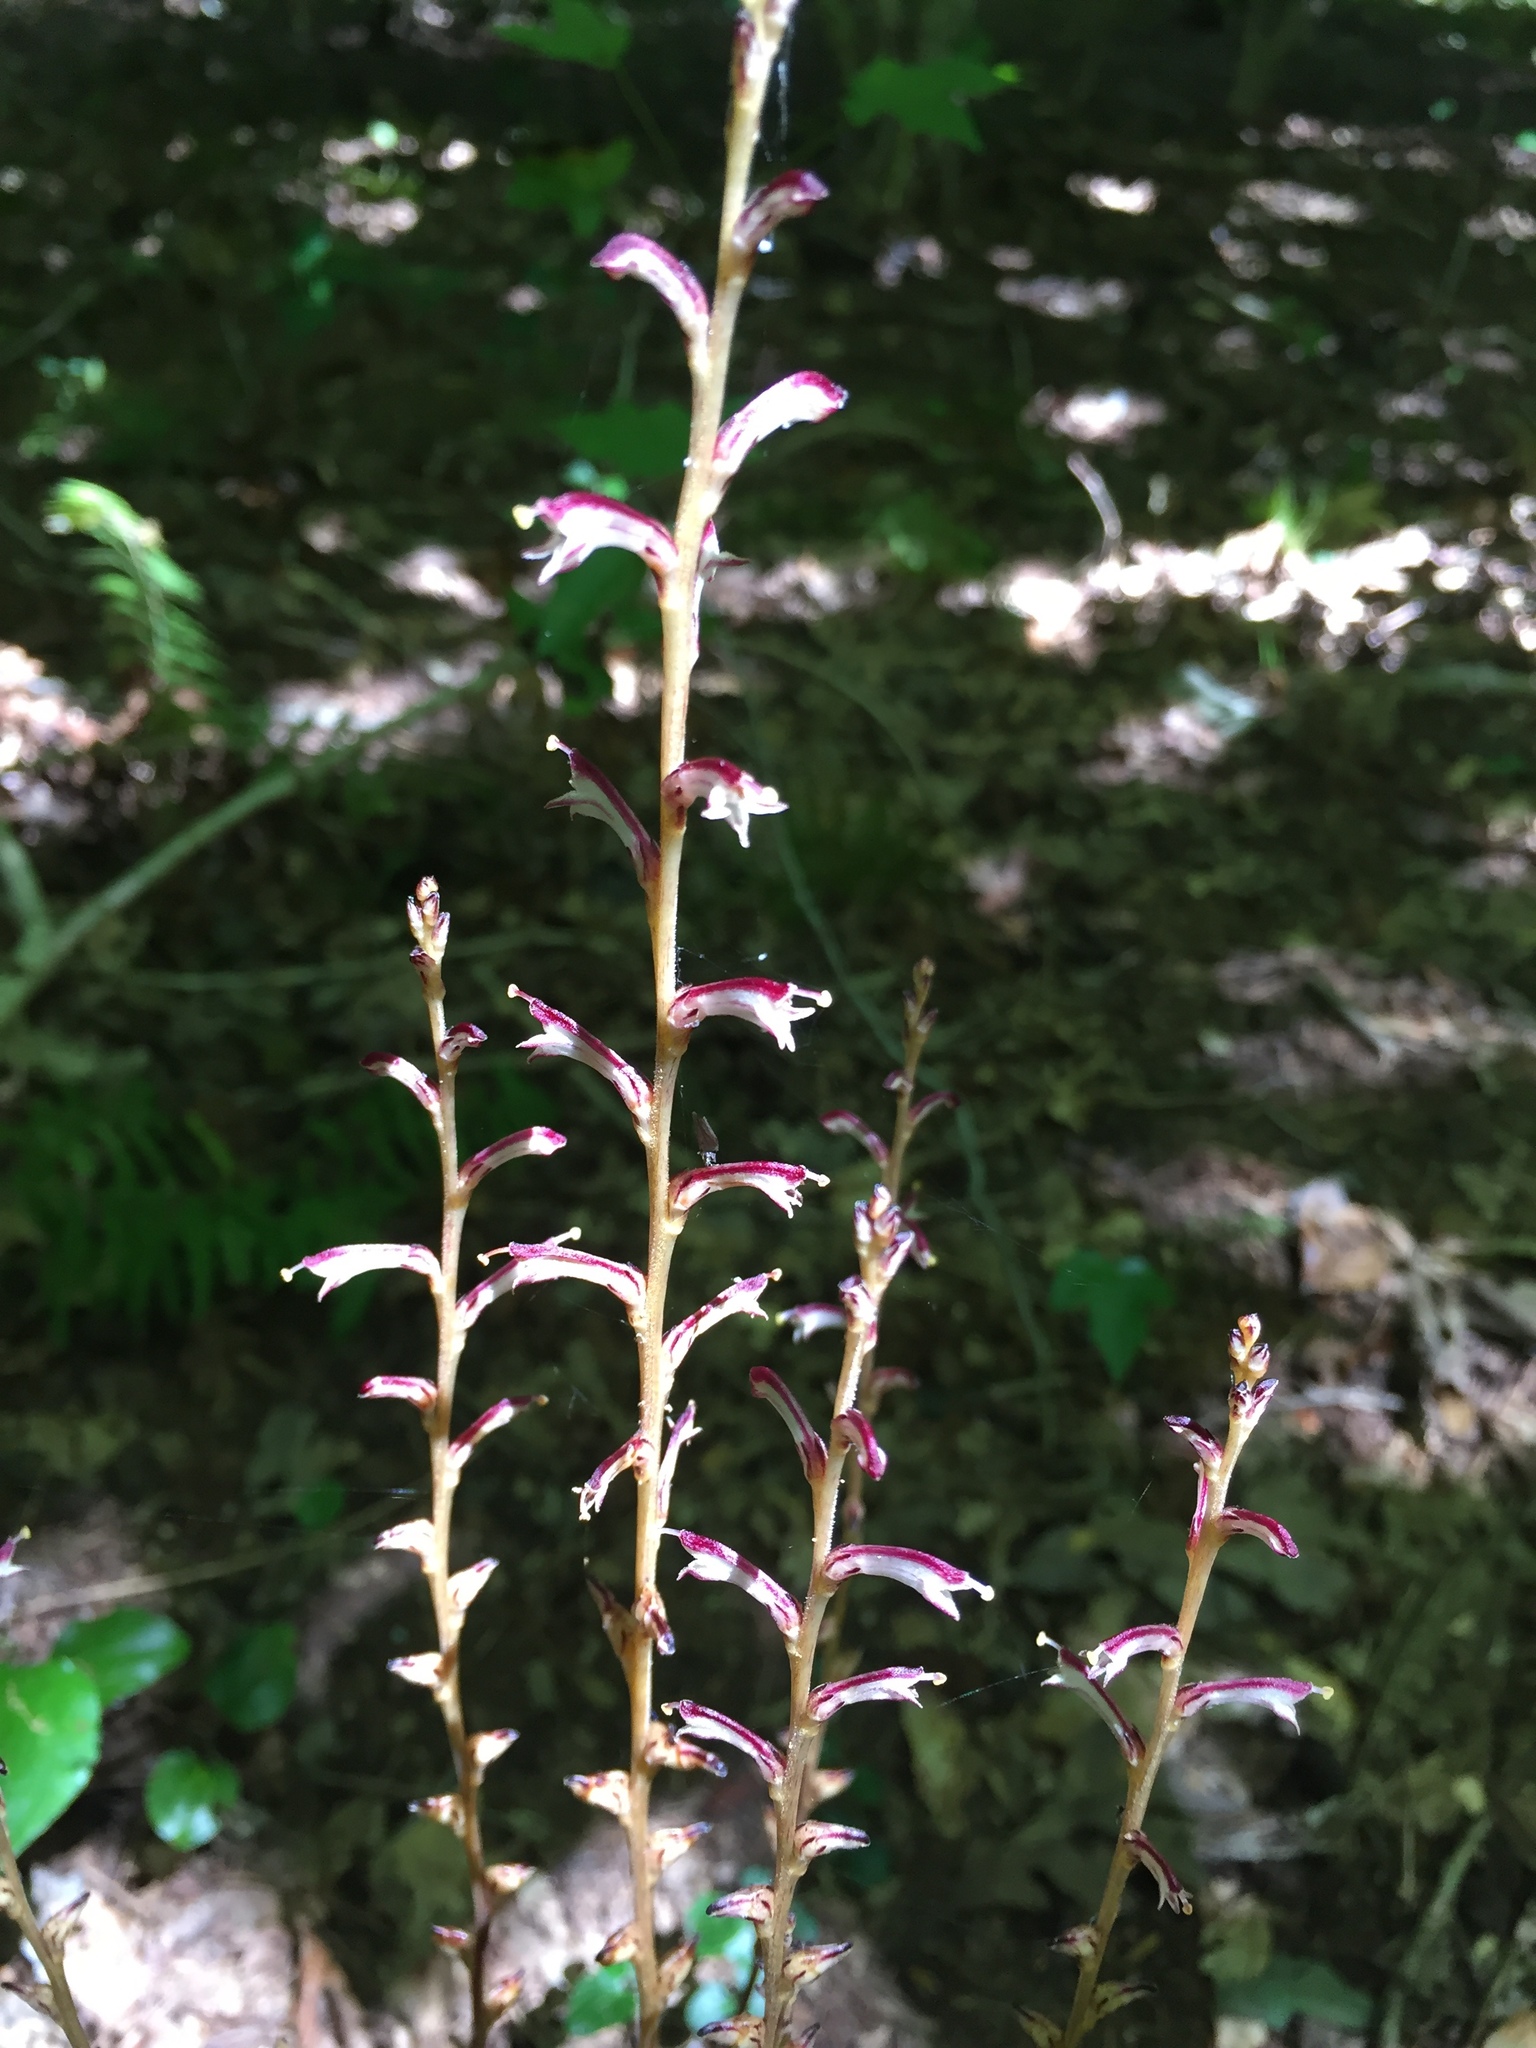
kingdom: Plantae
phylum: Tracheophyta
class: Magnoliopsida
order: Lamiales
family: Orobanchaceae
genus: Epifagus
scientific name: Epifagus virginiana
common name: Beechdrops
